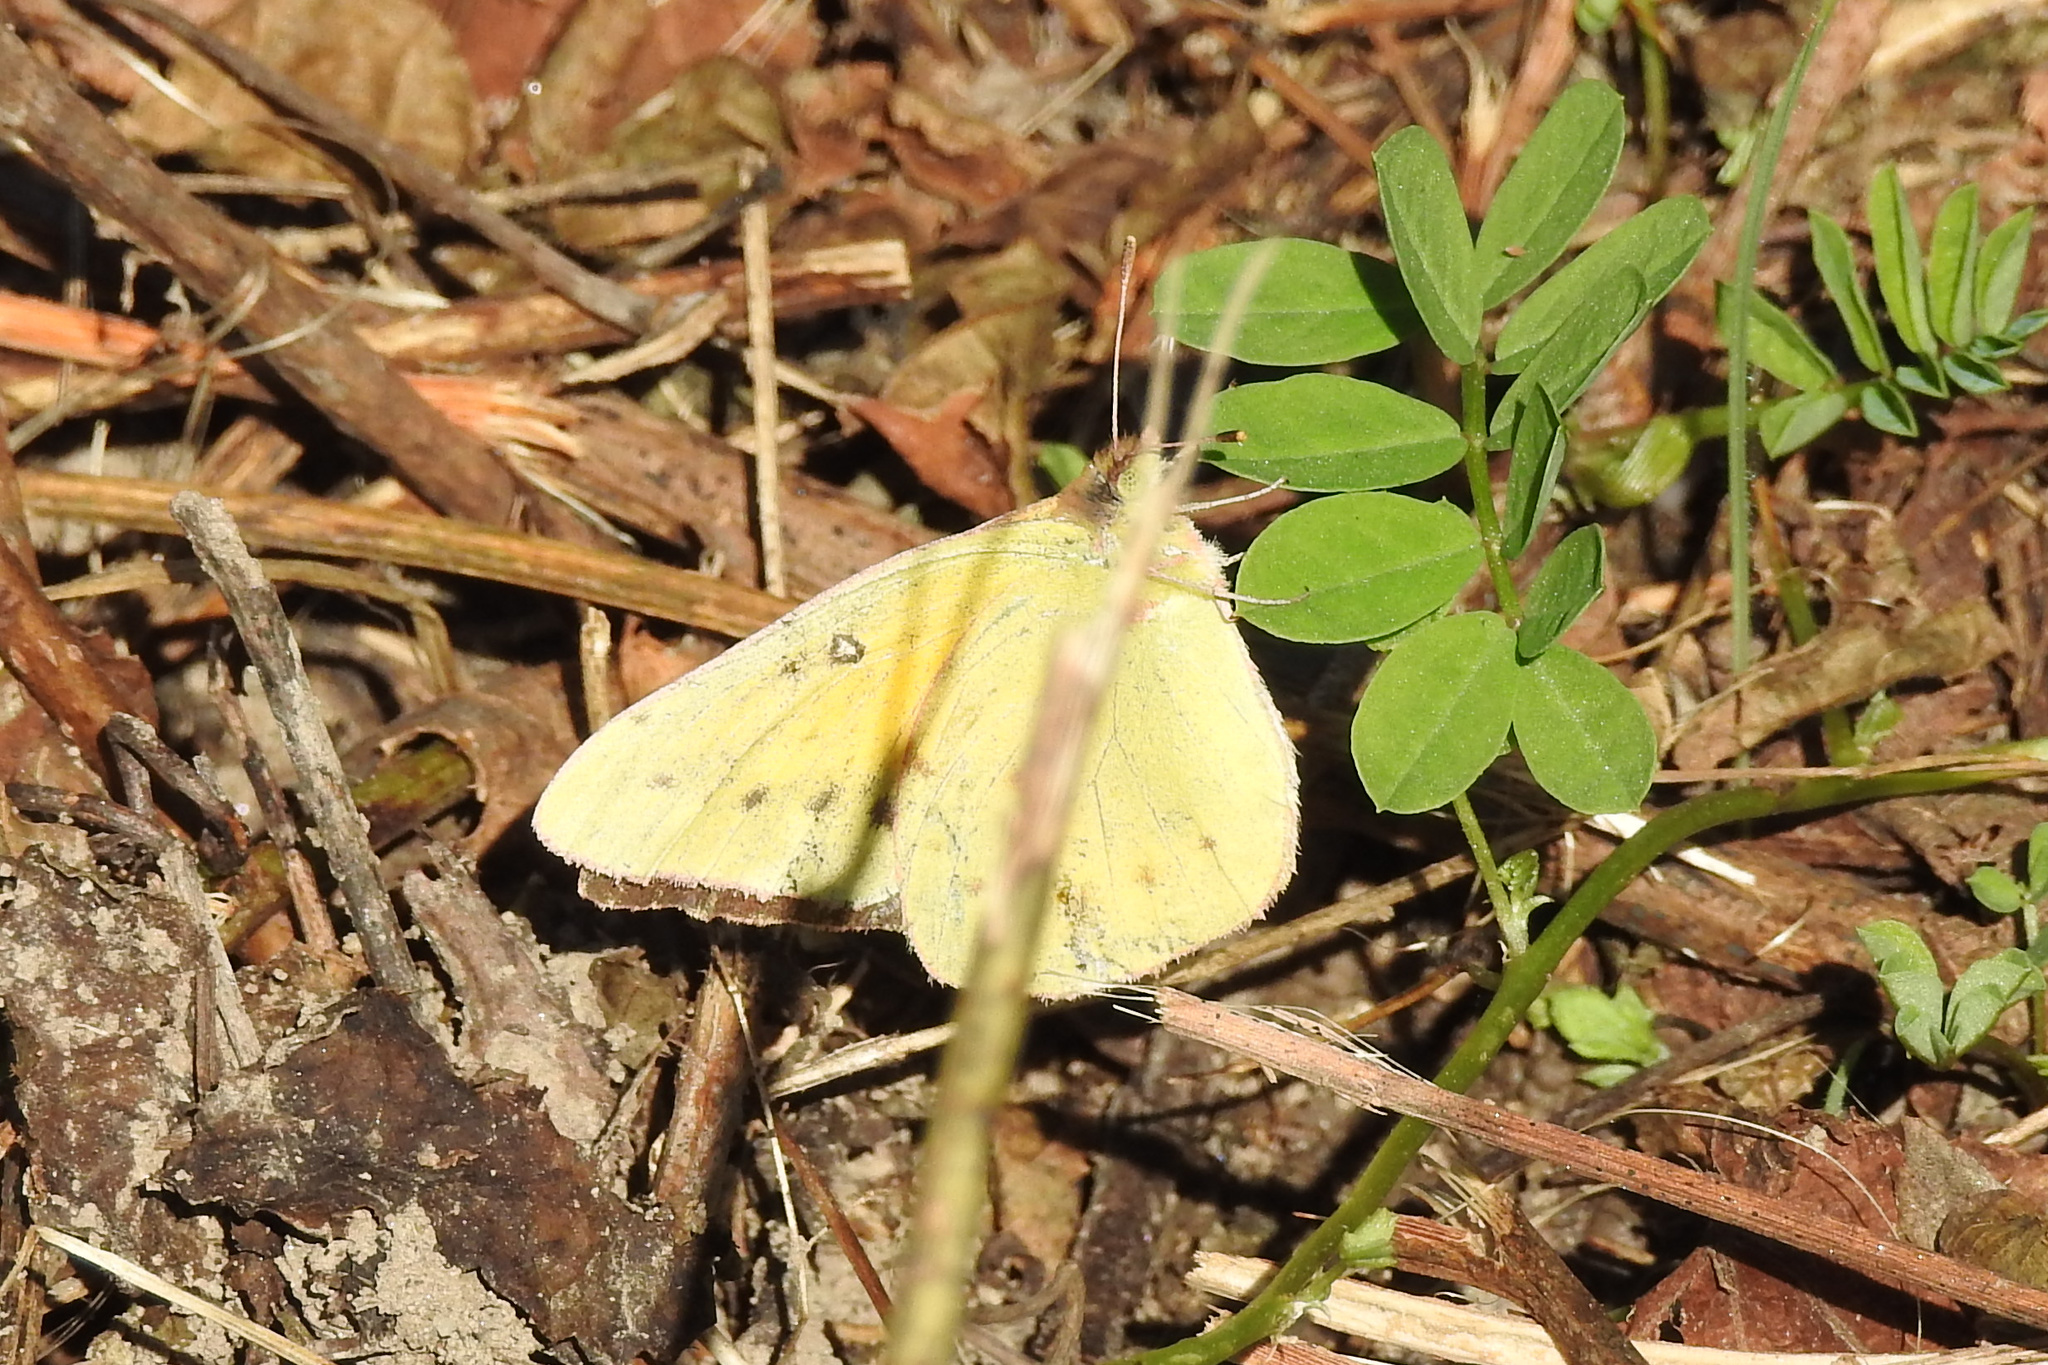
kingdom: Animalia
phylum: Arthropoda
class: Insecta
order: Lepidoptera
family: Pieridae
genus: Colias
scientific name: Colias eurytheme
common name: Alfalfa butterfly
